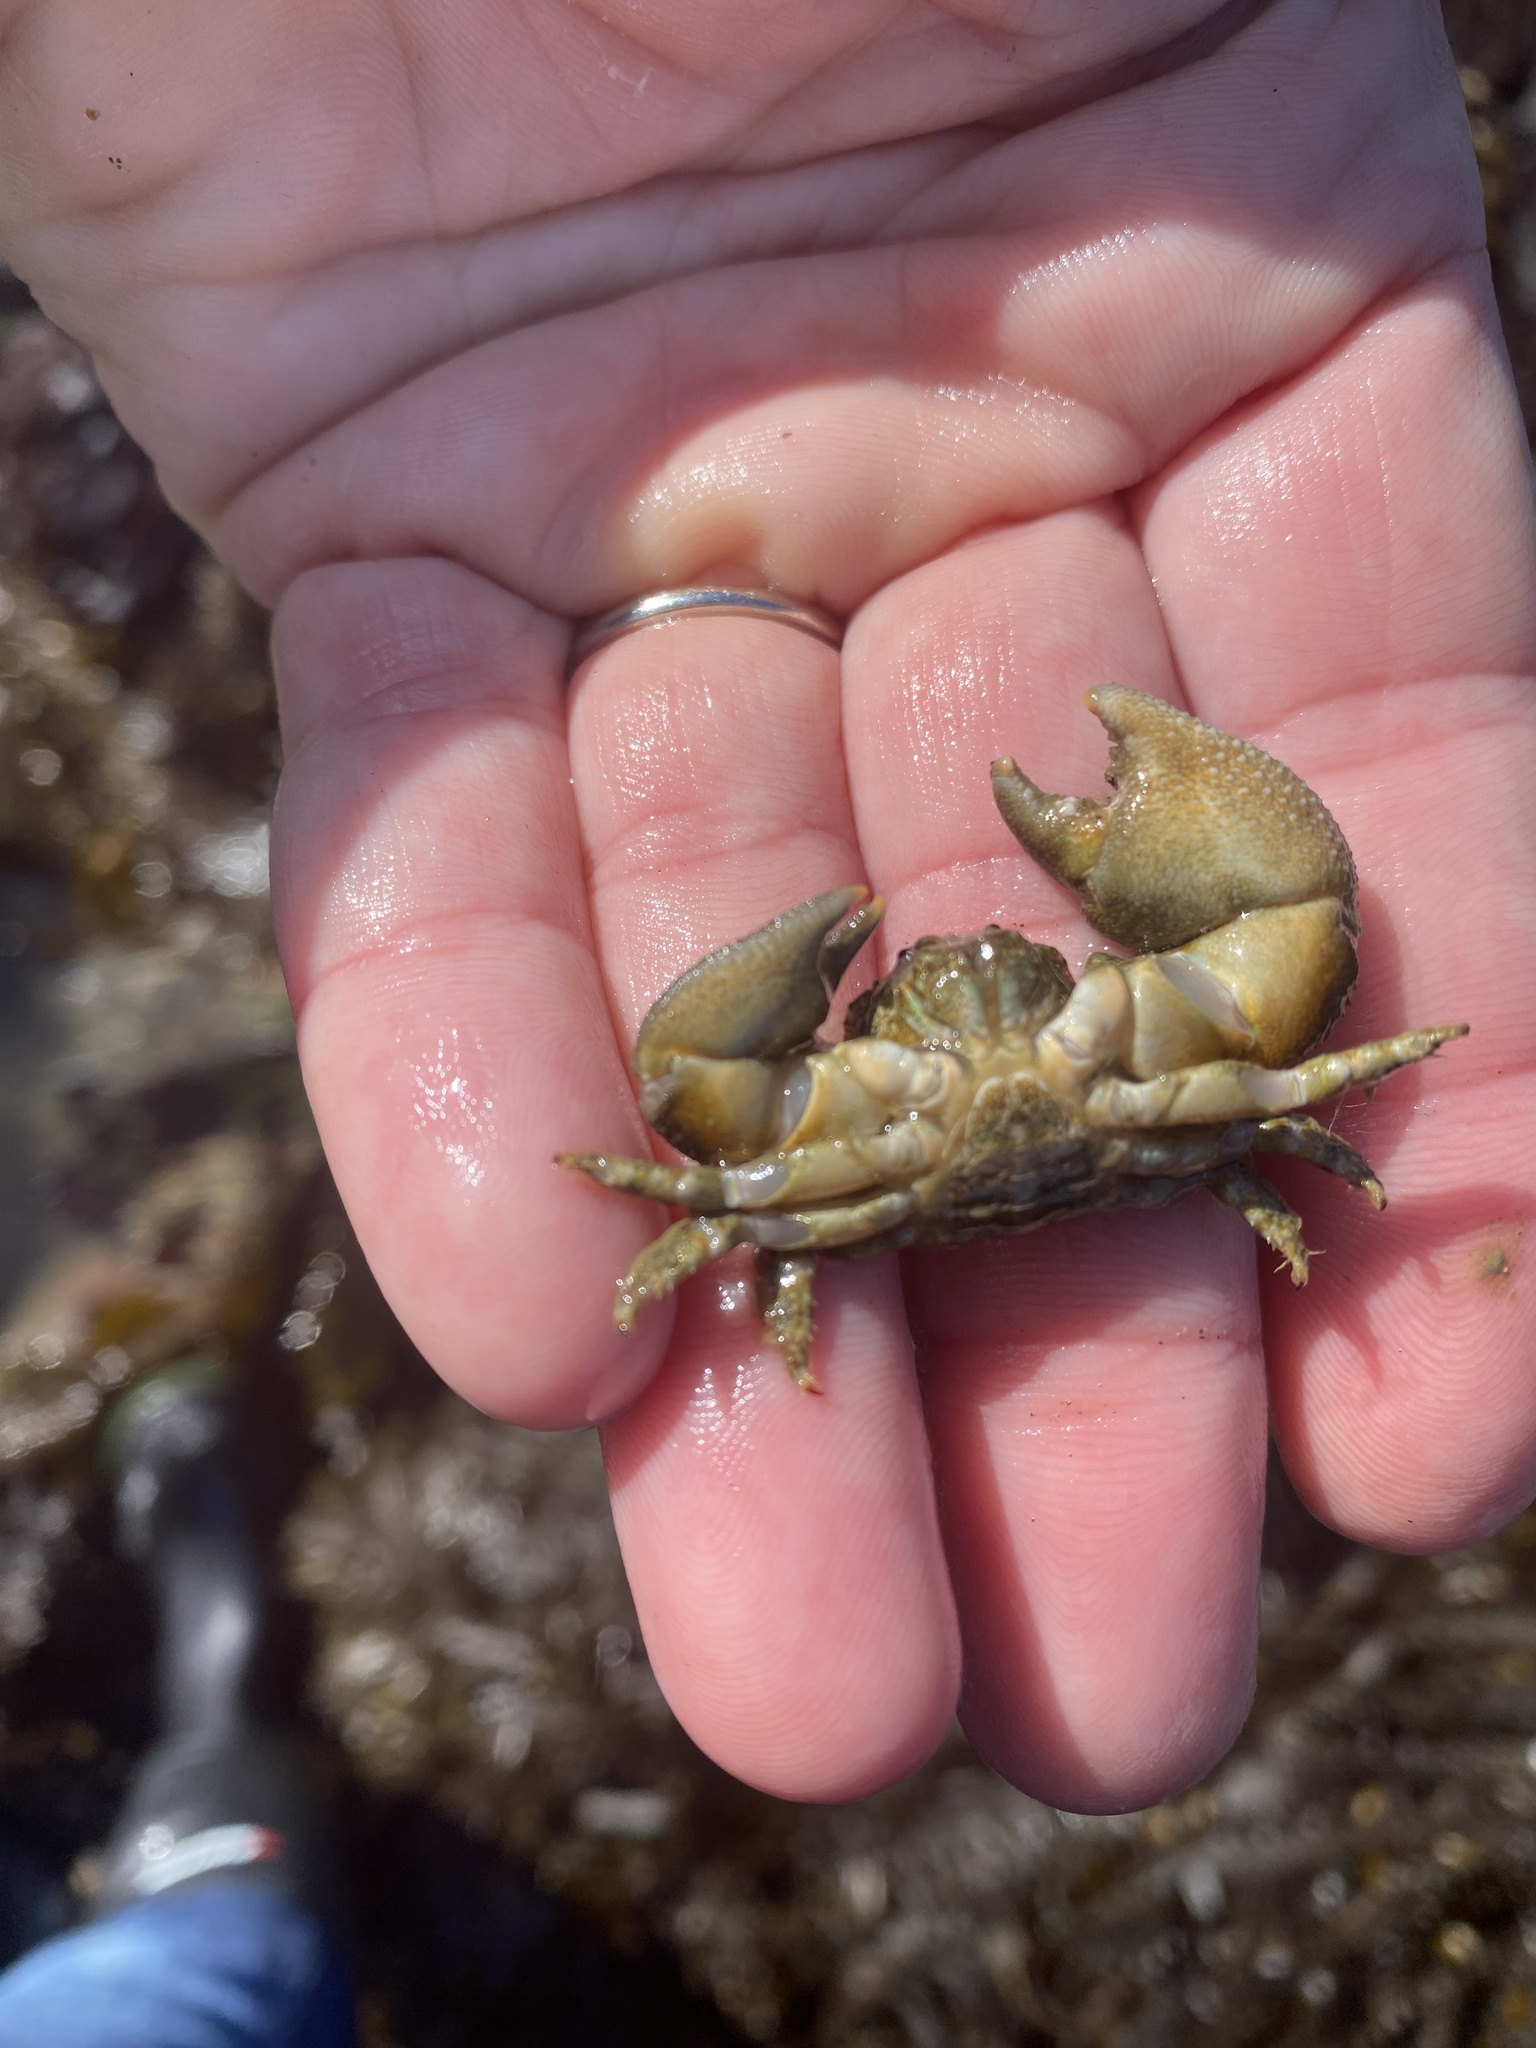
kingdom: Animalia
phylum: Arthropoda
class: Malacostraca
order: Decapoda
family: Porcellanidae
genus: Pachycheles
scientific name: Pachycheles rudis
